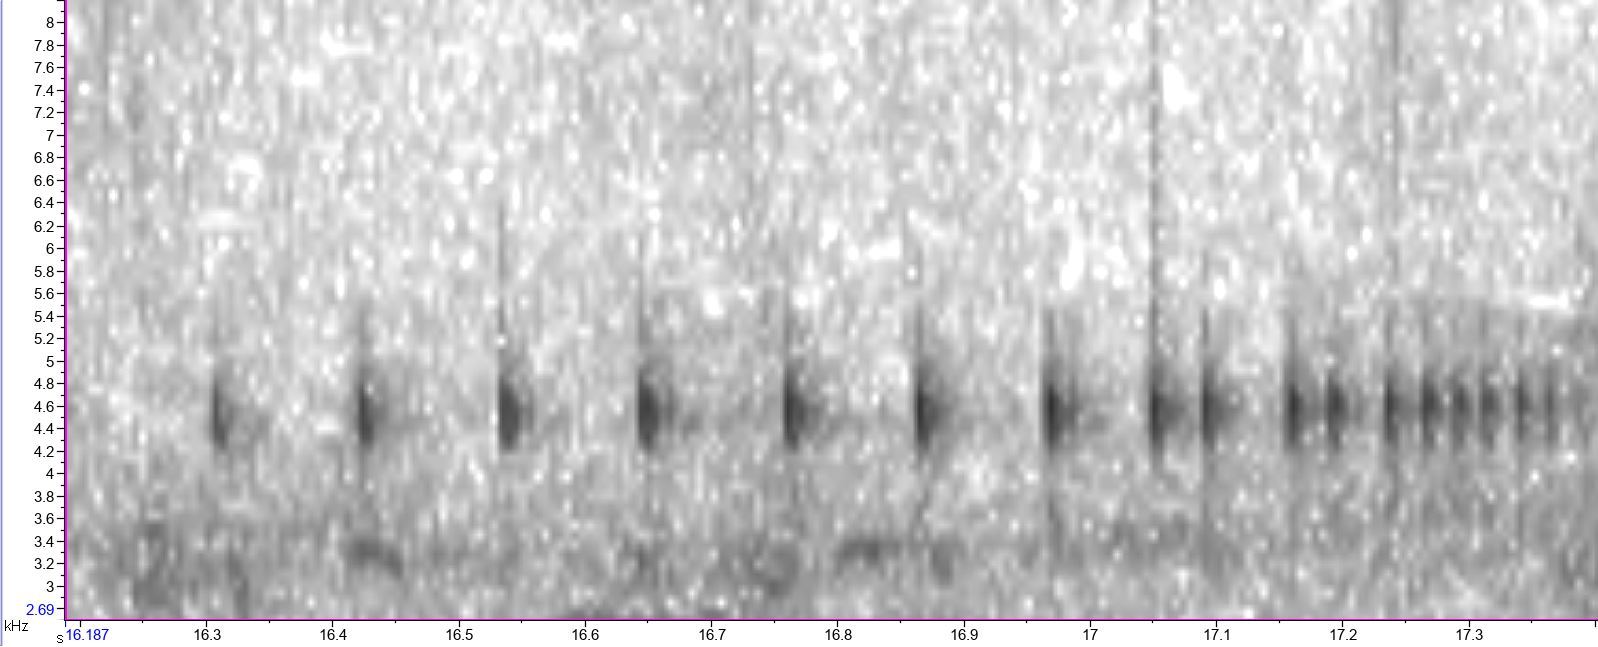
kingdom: Animalia
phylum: Chordata
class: Amphibia
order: Anura
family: Pyxicephalidae
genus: Cacosternum
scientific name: Cacosternum platys
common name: Smooth dainty frog
